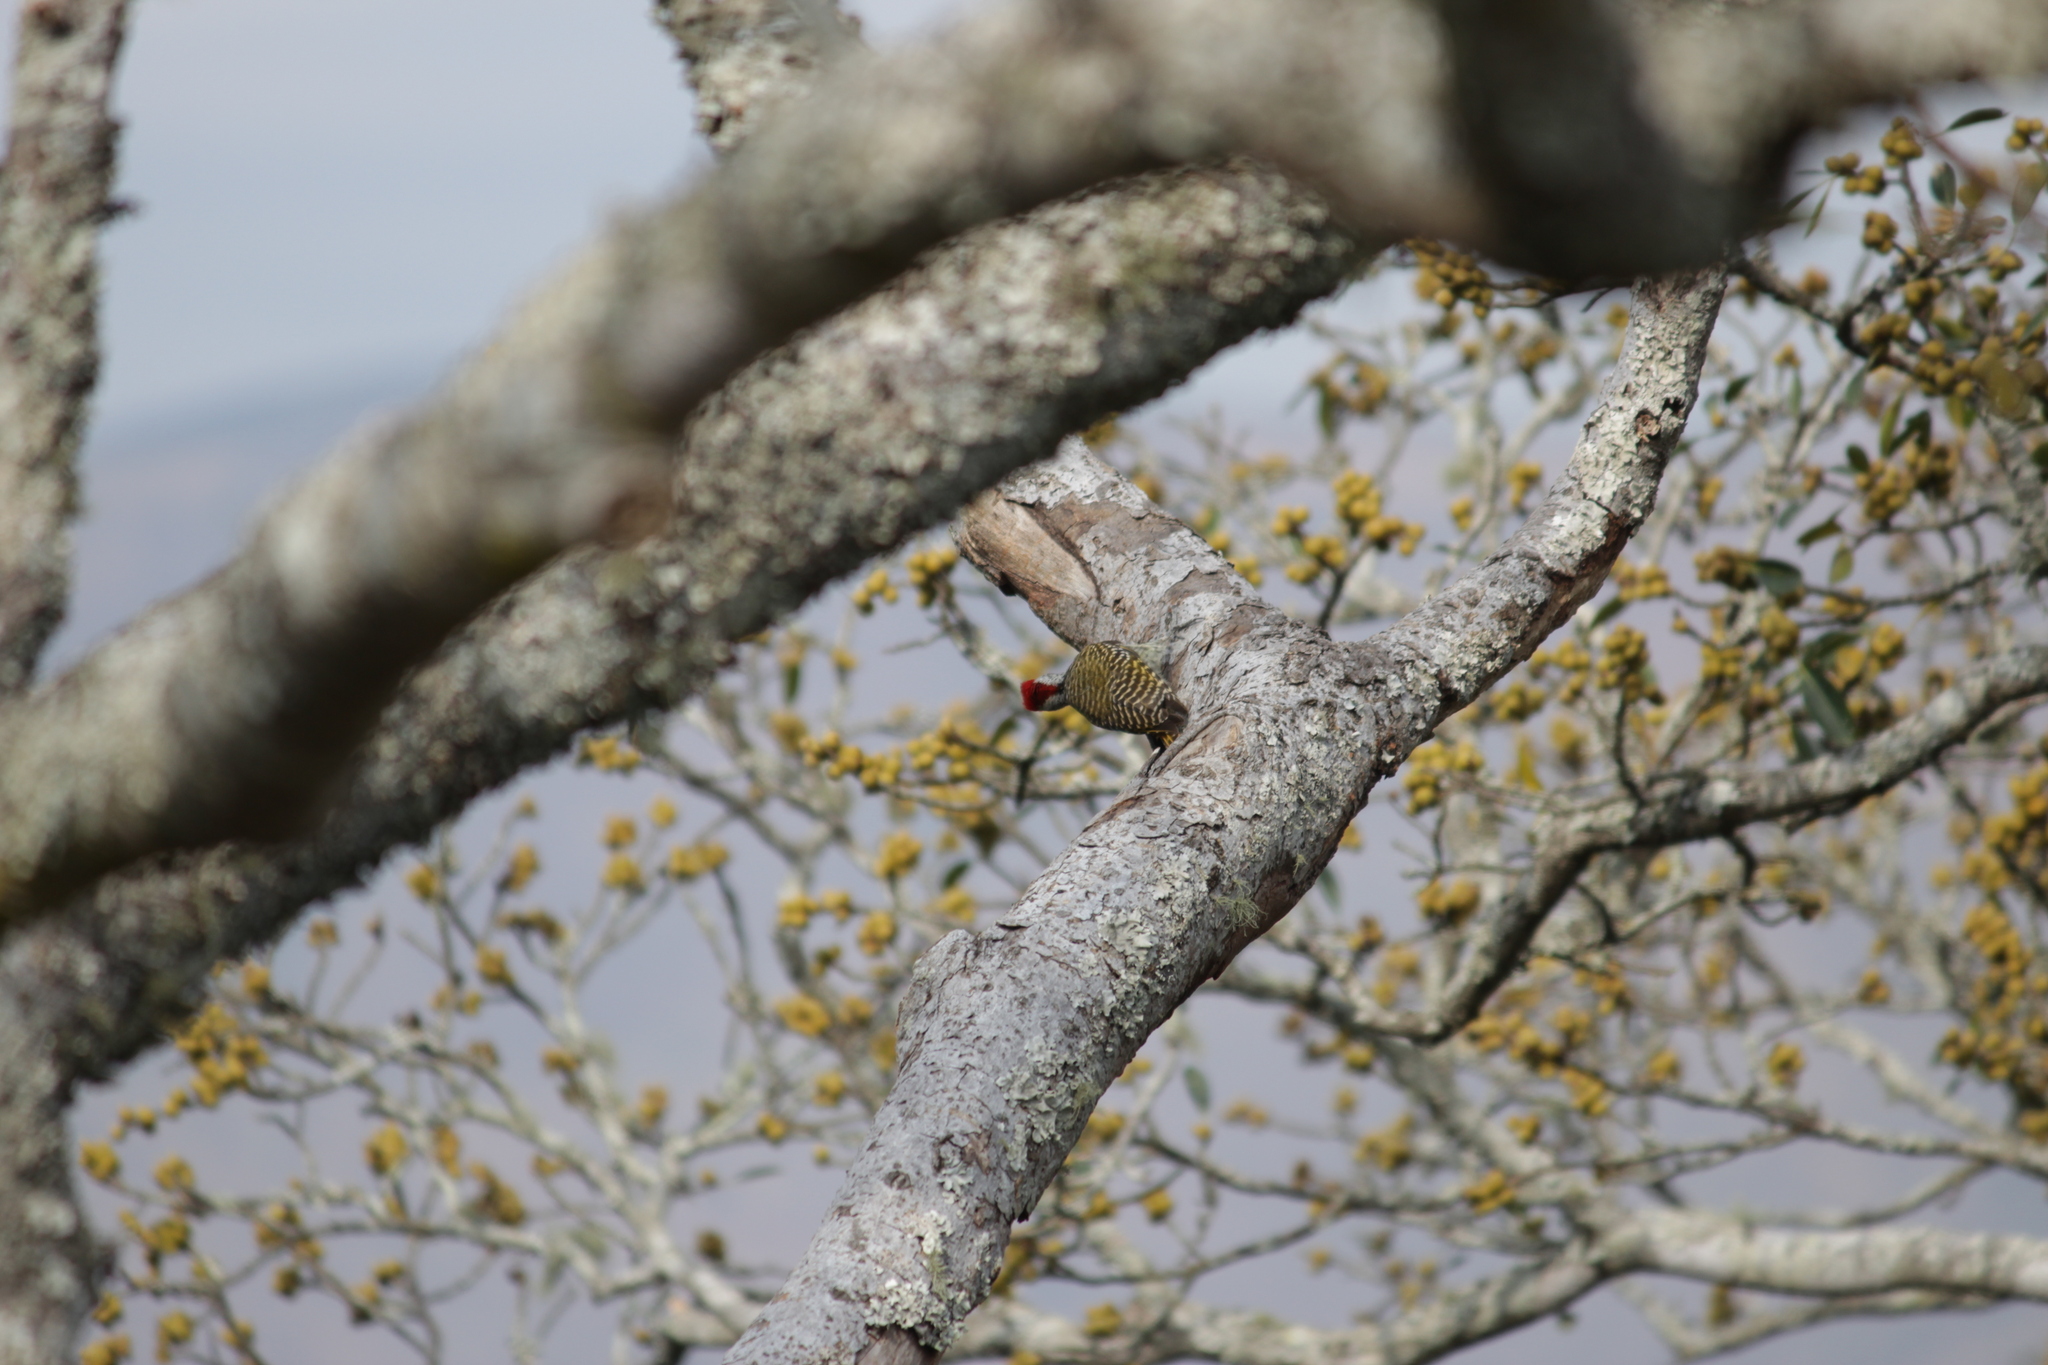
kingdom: Animalia
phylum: Chordata
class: Aves
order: Piciformes
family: Picidae
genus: Dendropicos
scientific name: Dendropicos fuscescens
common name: Cardinal woodpecker
